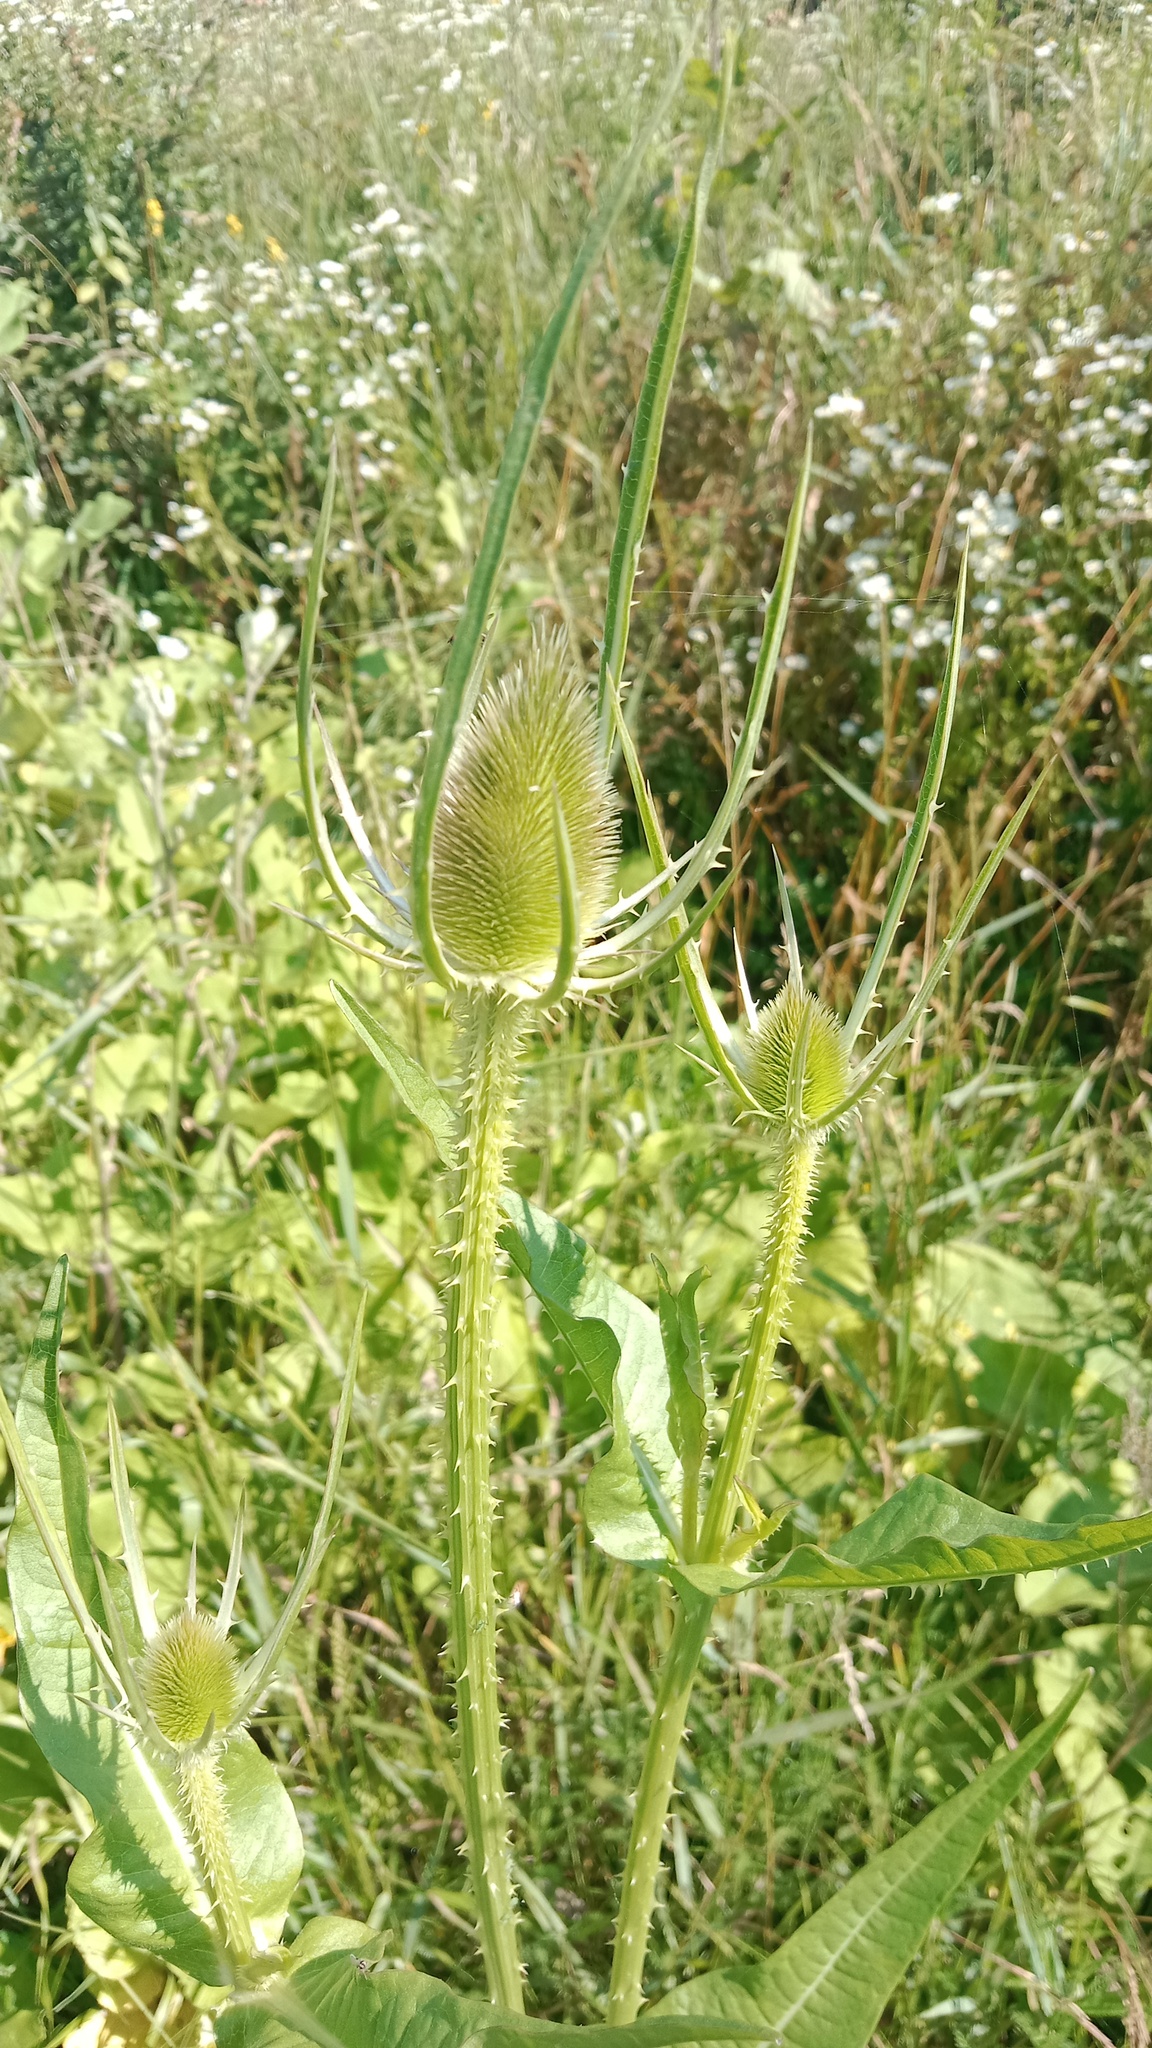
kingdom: Plantae
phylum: Tracheophyta
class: Magnoliopsida
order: Dipsacales
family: Caprifoliaceae
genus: Dipsacus
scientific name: Dipsacus fullonum
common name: Teasel
